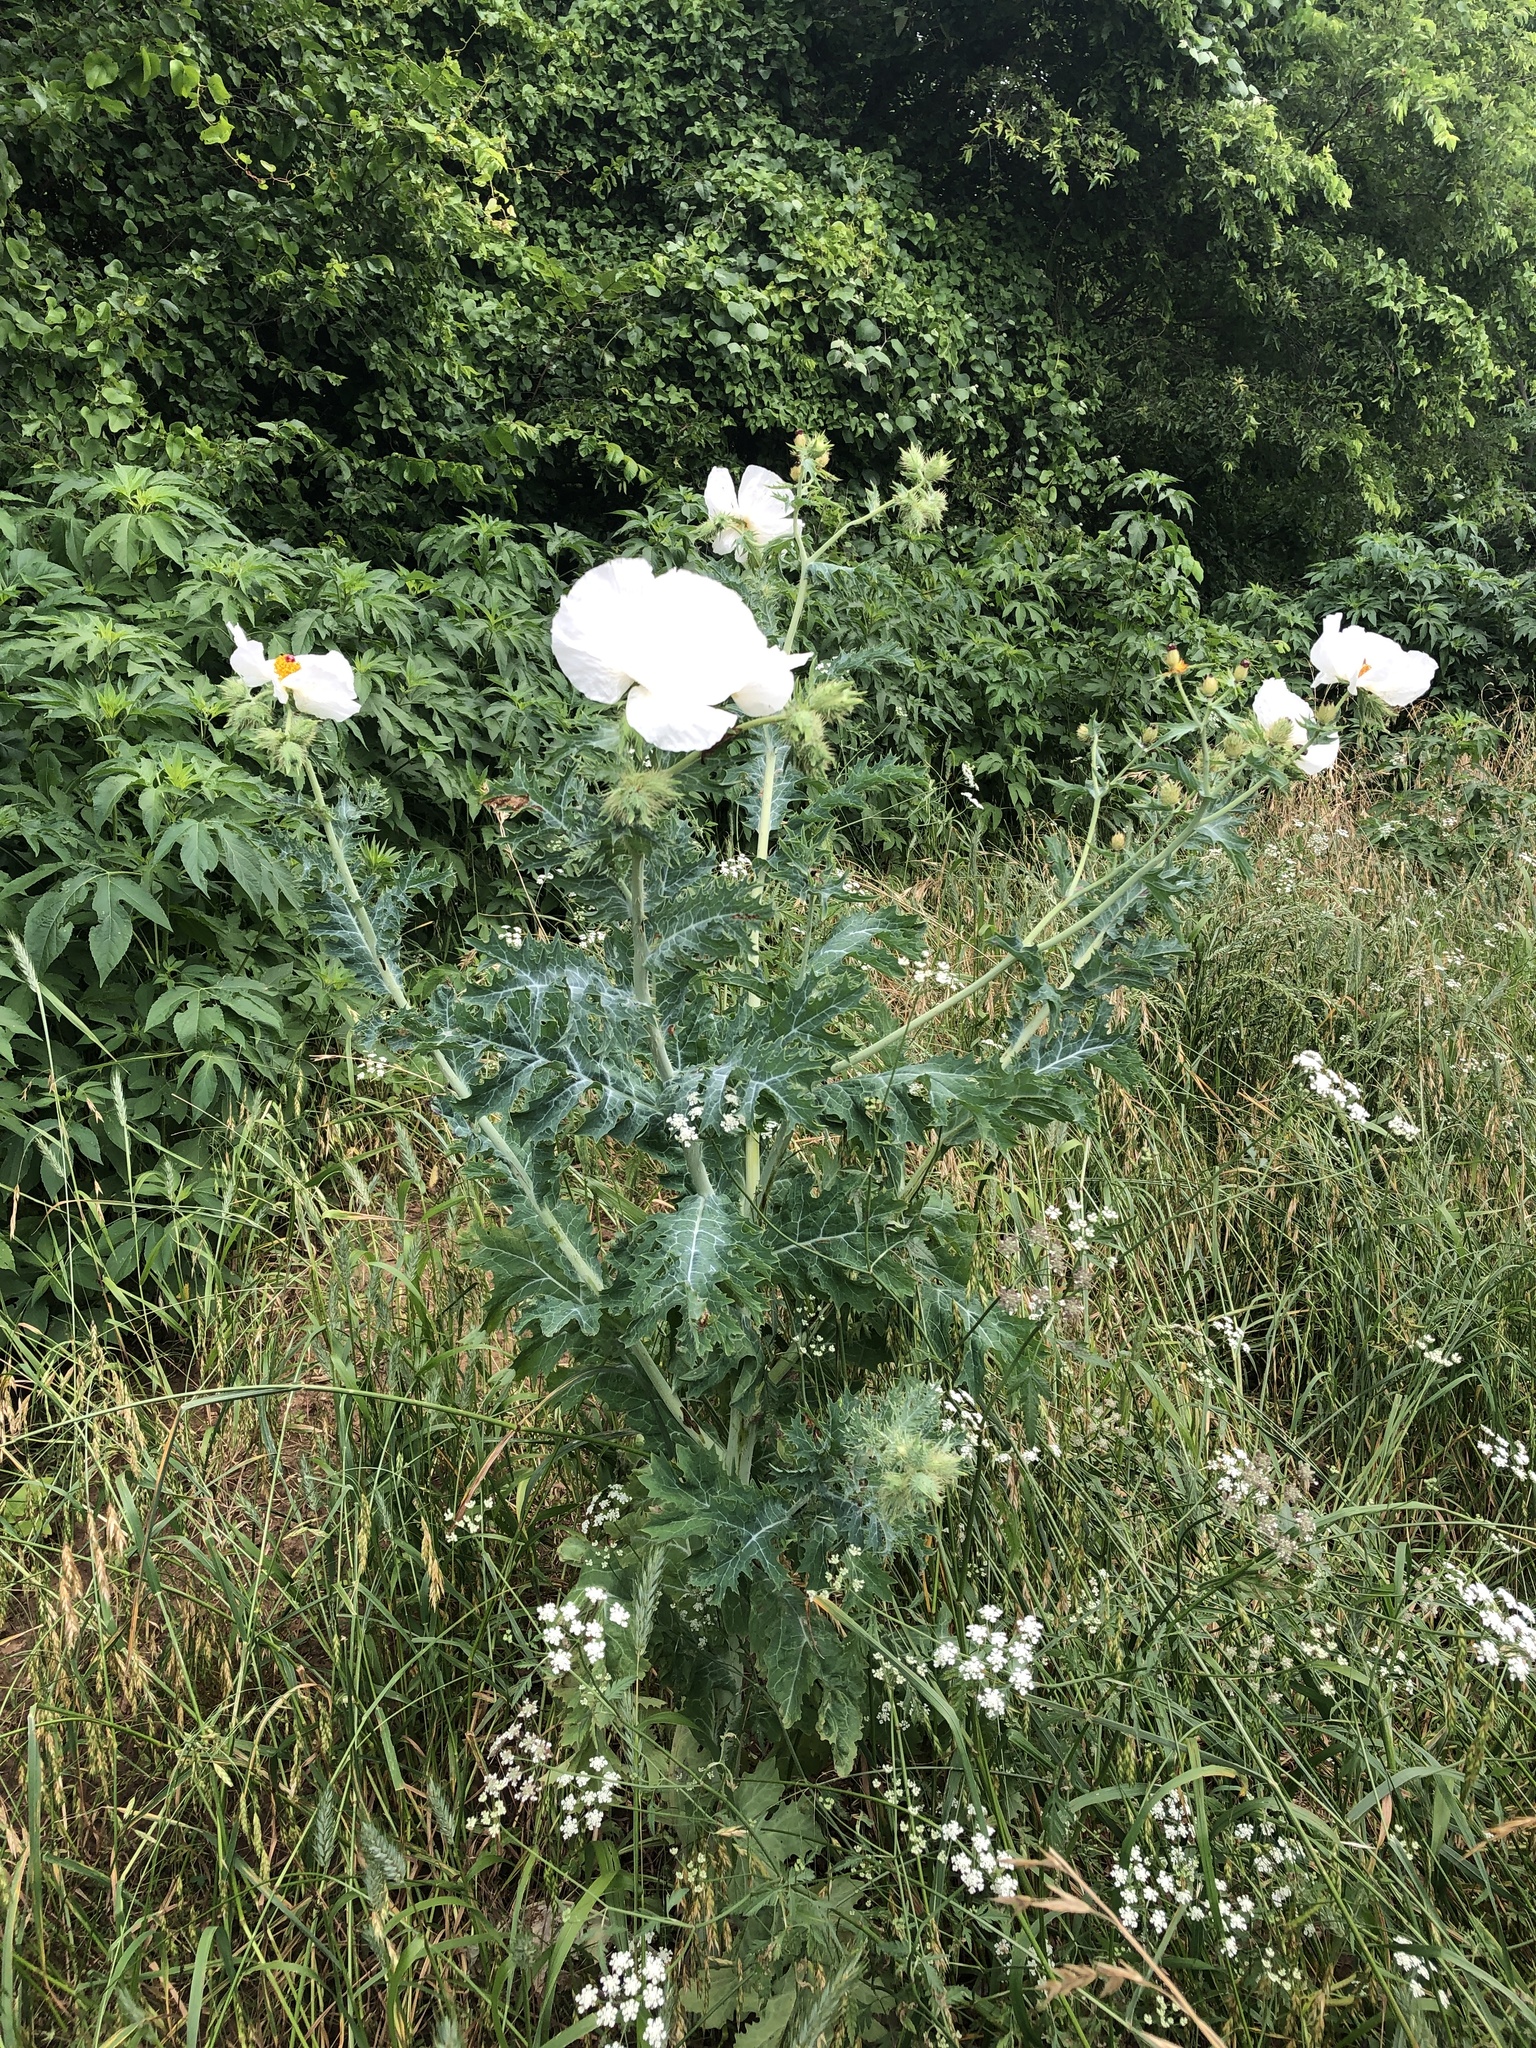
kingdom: Plantae
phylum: Tracheophyta
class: Magnoliopsida
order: Ranunculales
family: Papaveraceae
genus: Argemone
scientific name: Argemone albiflora
